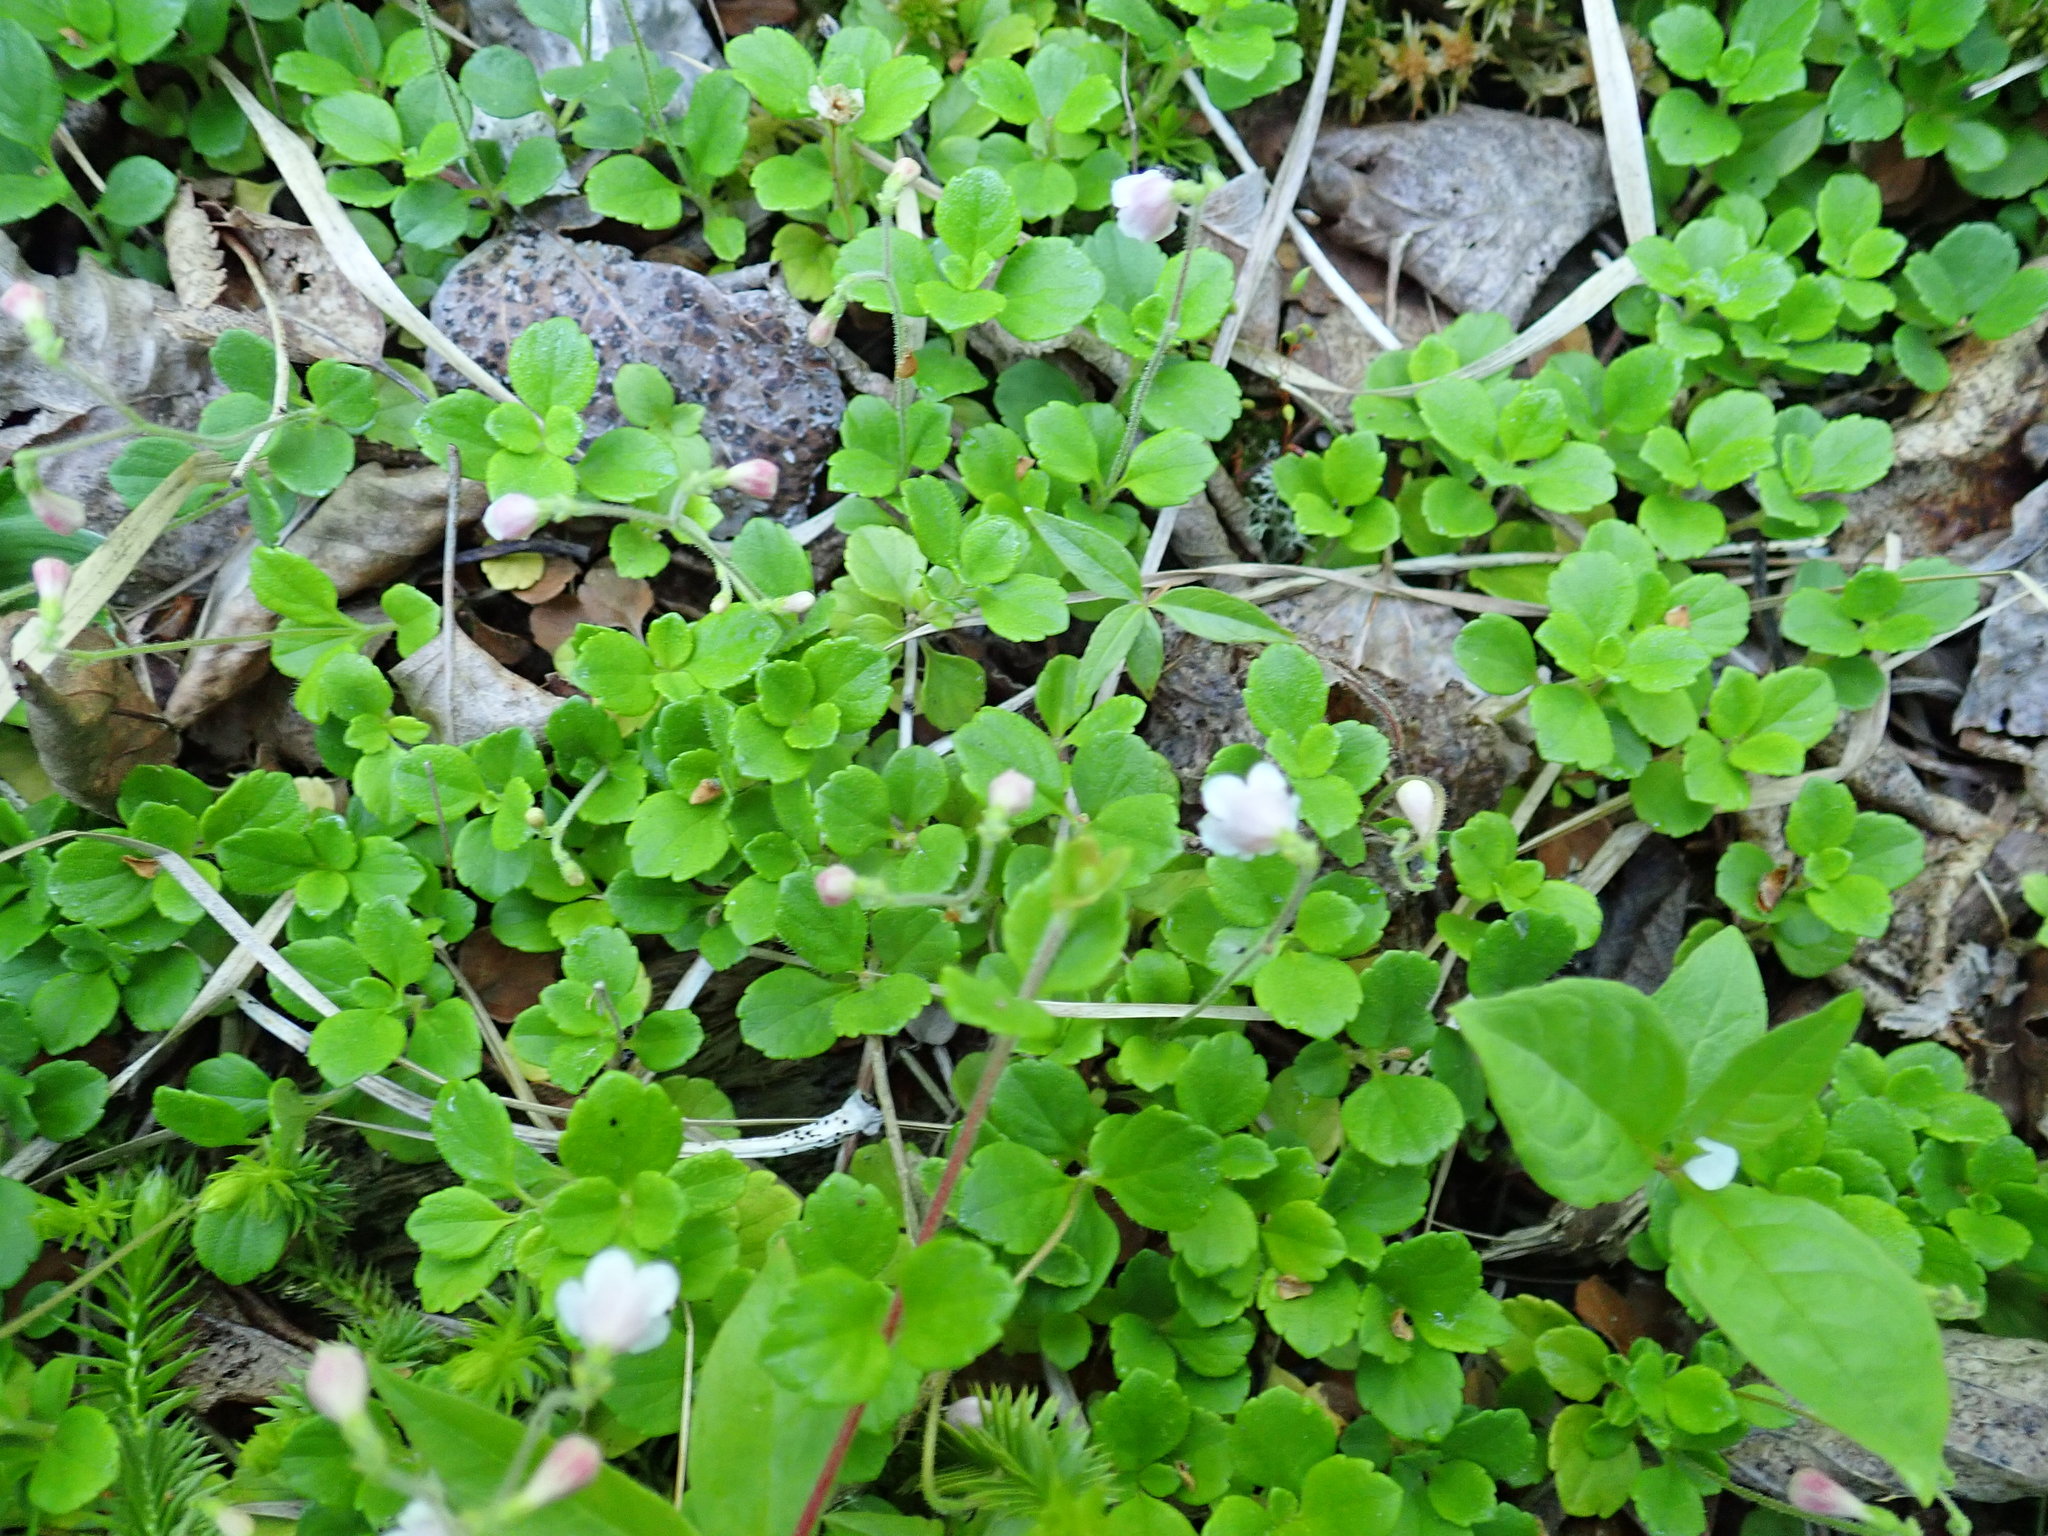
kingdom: Plantae
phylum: Tracheophyta
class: Magnoliopsida
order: Dipsacales
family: Caprifoliaceae
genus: Linnaea
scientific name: Linnaea borealis
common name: Twinflower
